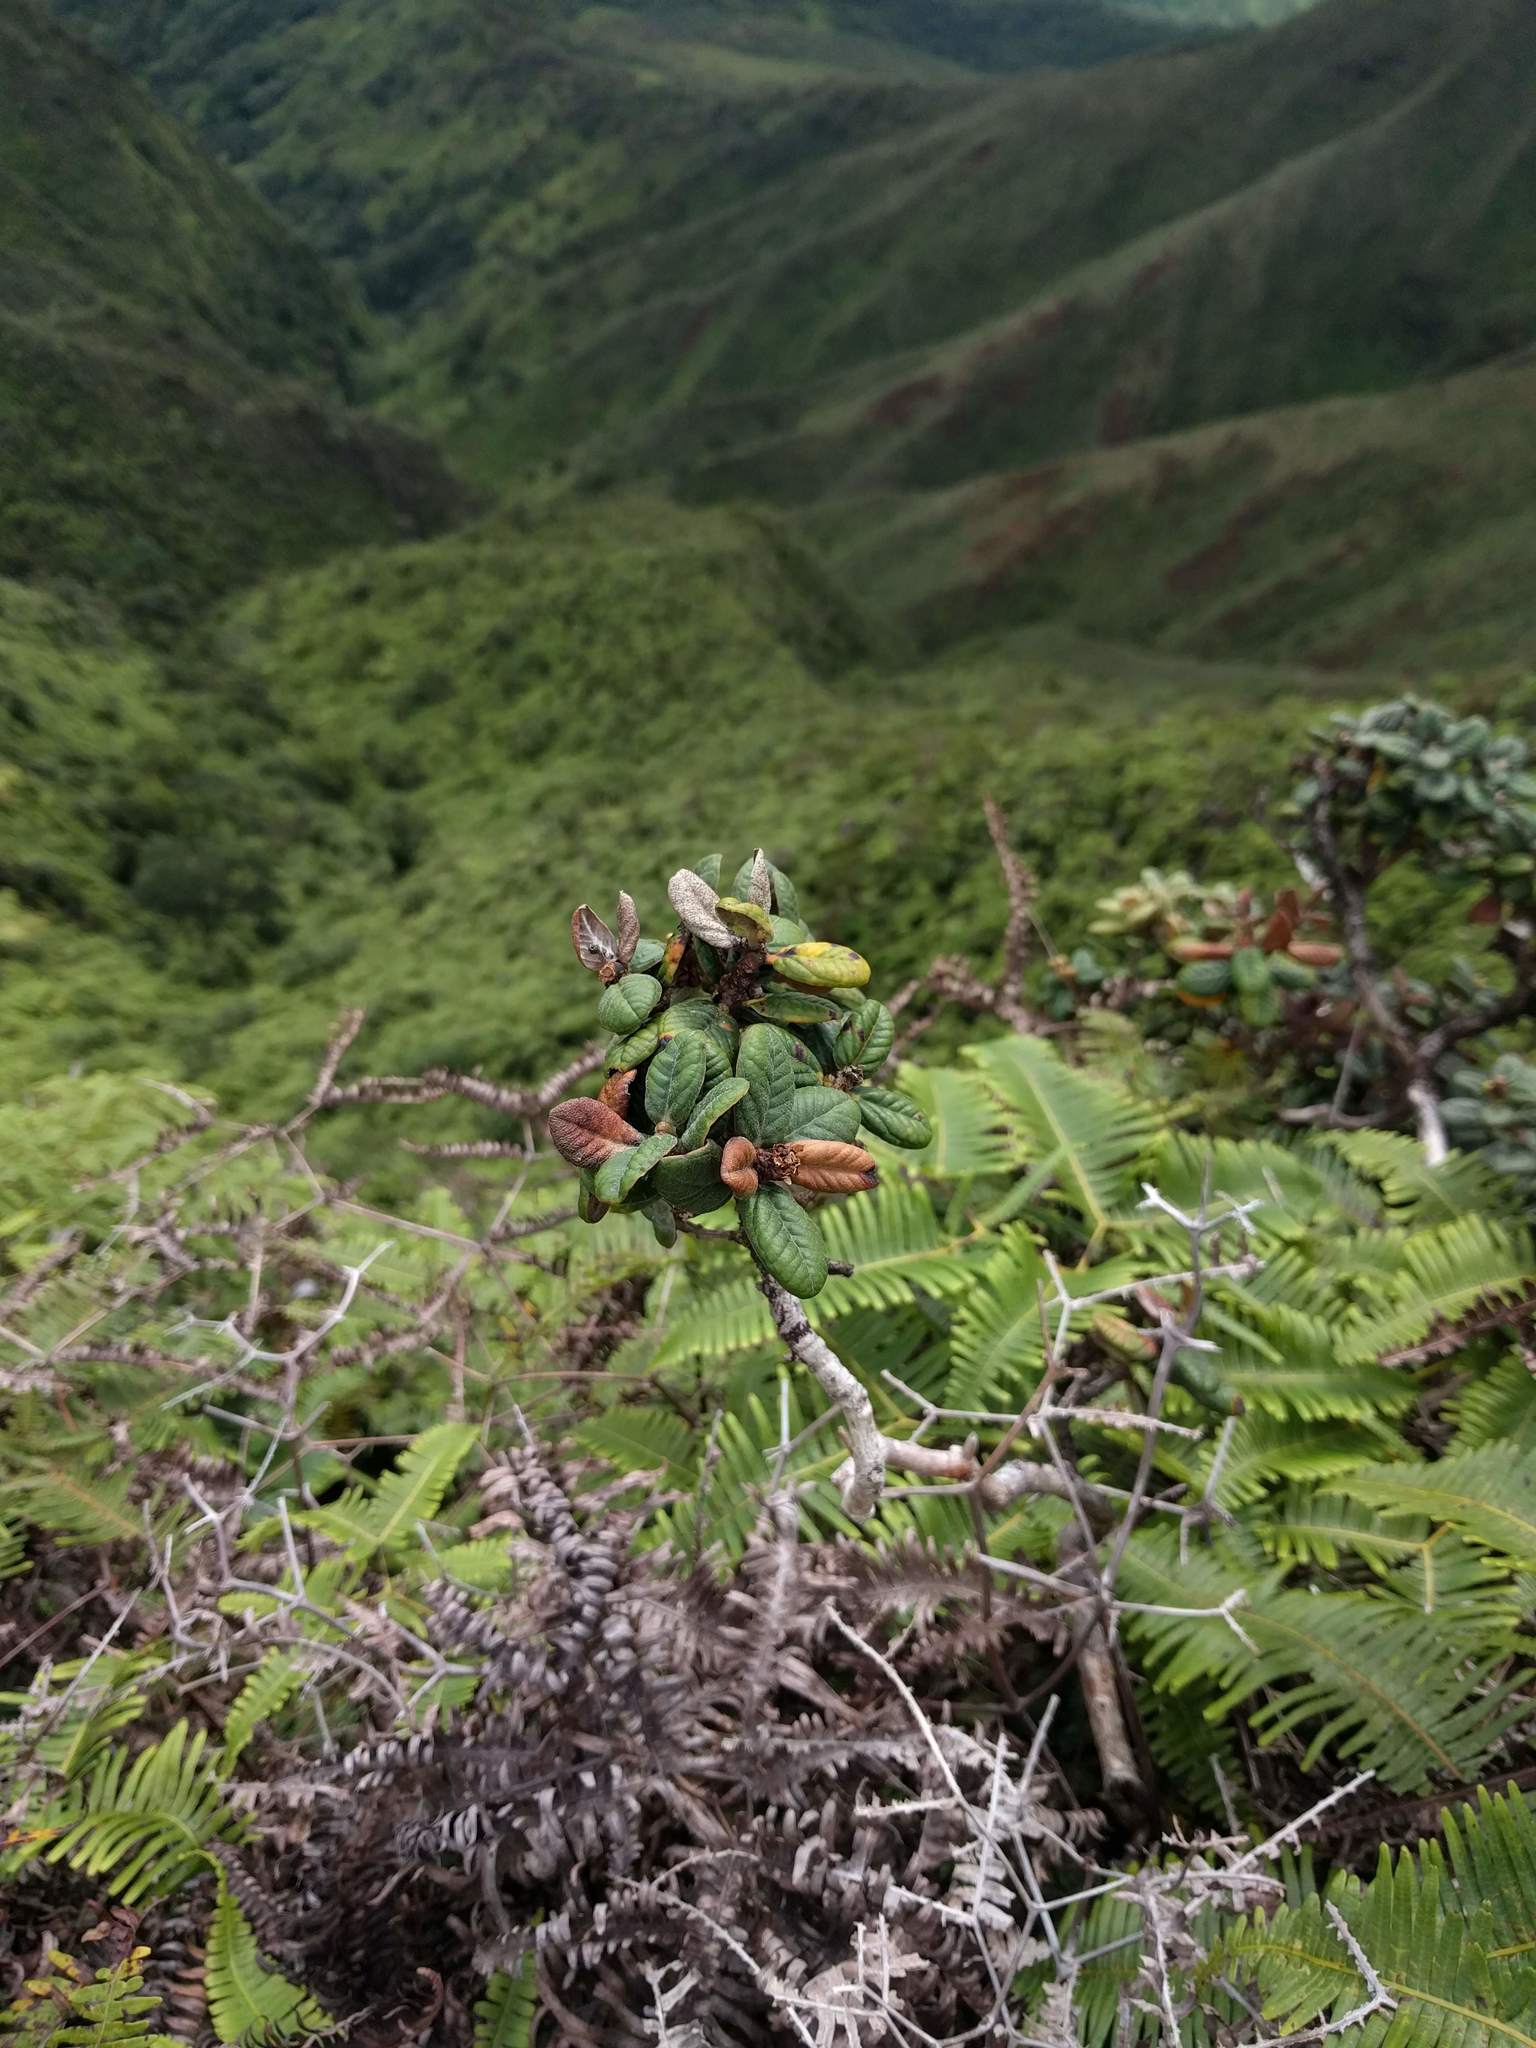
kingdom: Plantae
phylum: Tracheophyta
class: Magnoliopsida
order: Myrtales
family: Myrtaceae
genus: Metrosideros
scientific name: Metrosideros rugosa
